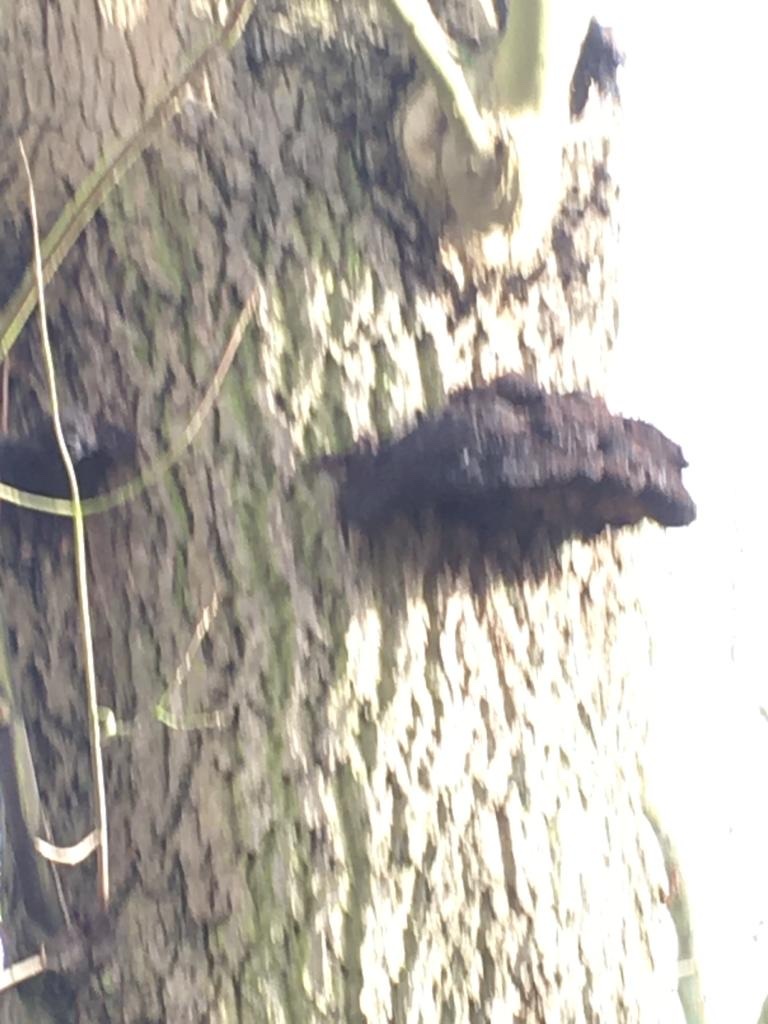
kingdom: Fungi
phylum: Basidiomycota
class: Agaricomycetes
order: Hymenochaetales
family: Hymenochaetaceae
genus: Inonotus
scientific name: Inonotus hispidus
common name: Shaggy bracket
